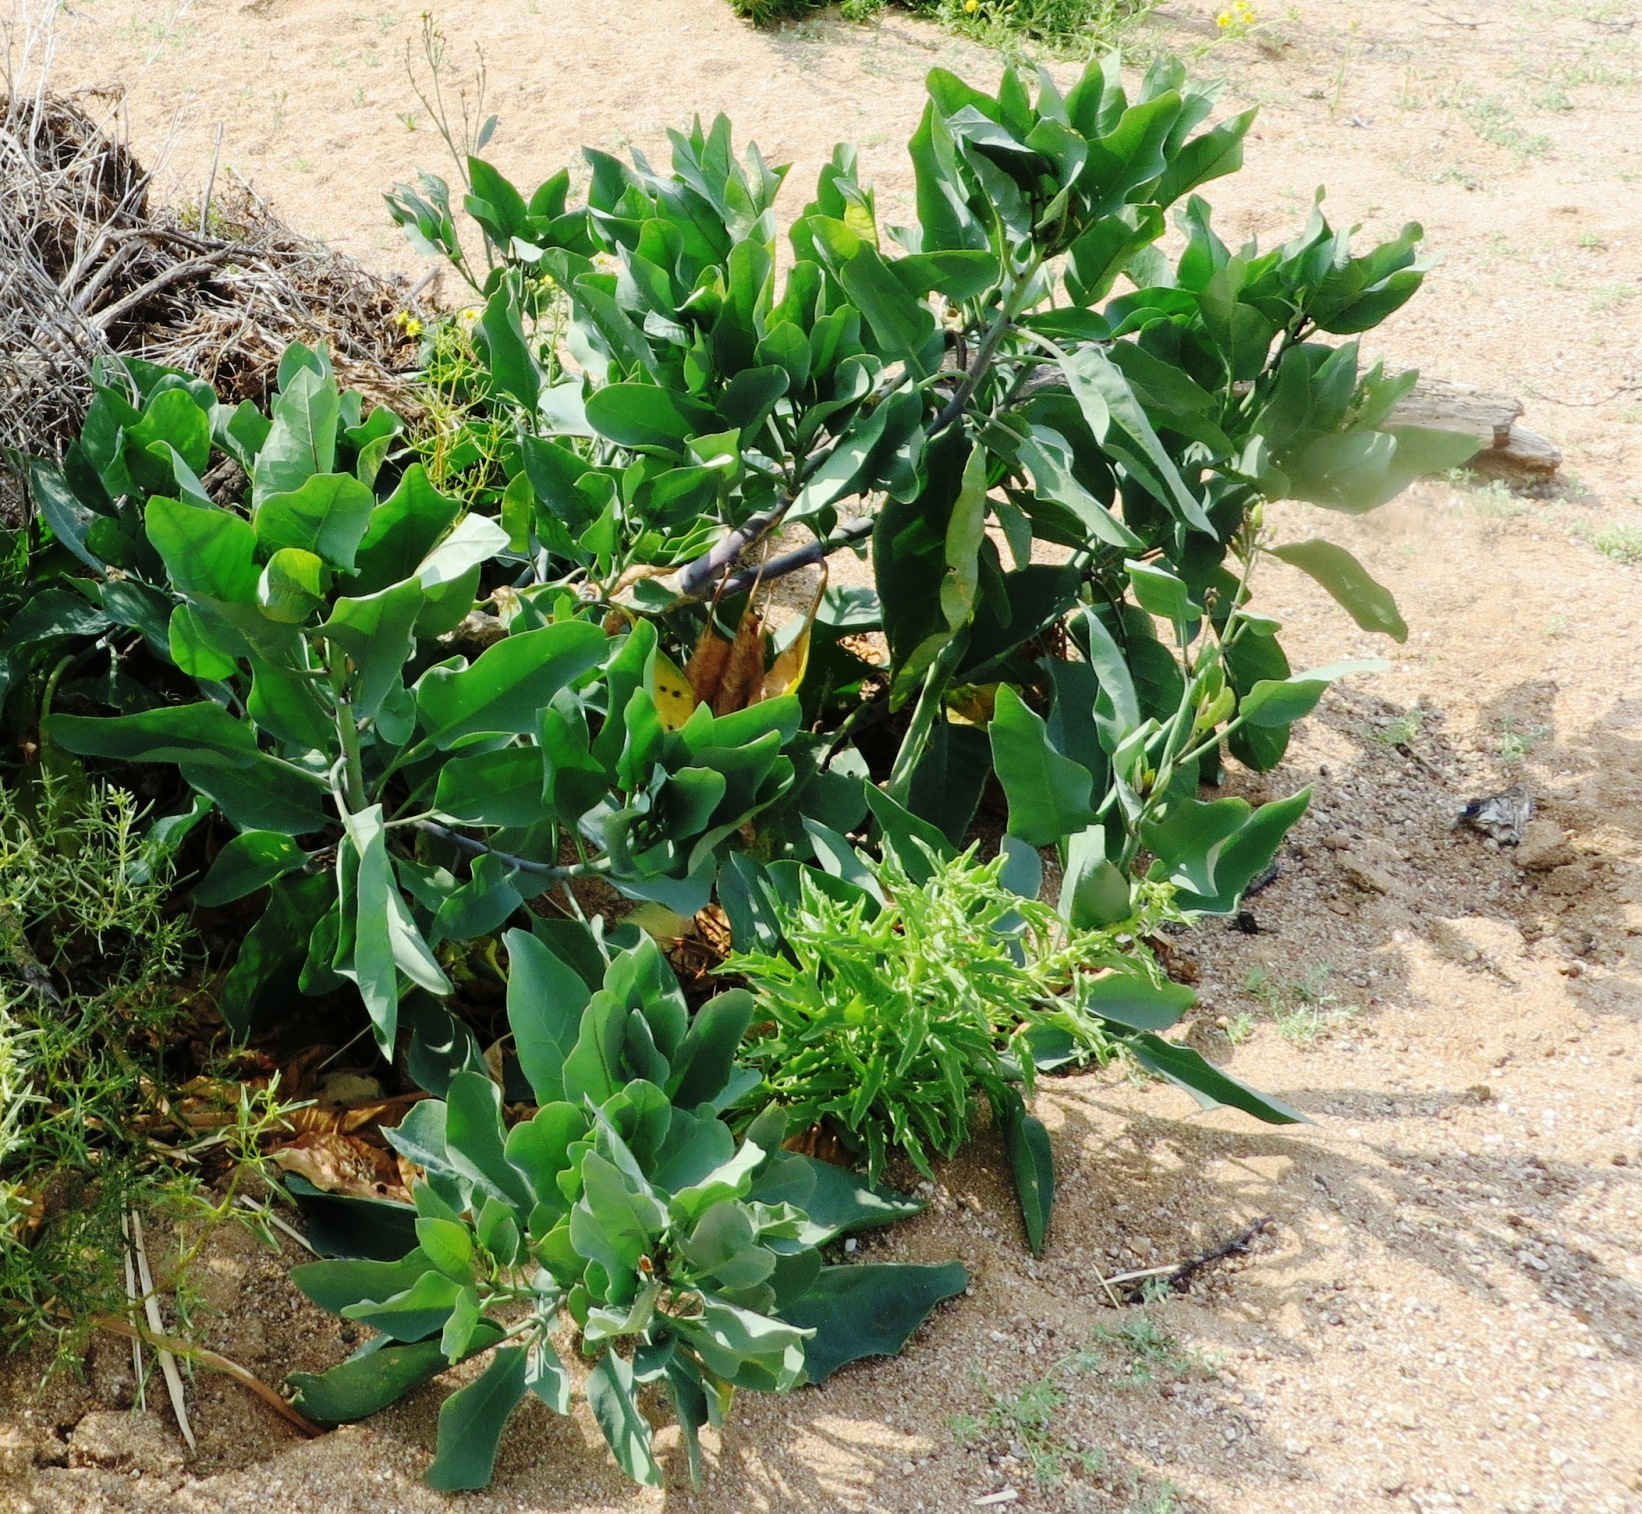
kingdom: Plantae
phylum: Tracheophyta
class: Magnoliopsida
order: Solanales
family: Solanaceae
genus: Nicotiana
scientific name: Nicotiana glauca
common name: Tree tobacco
